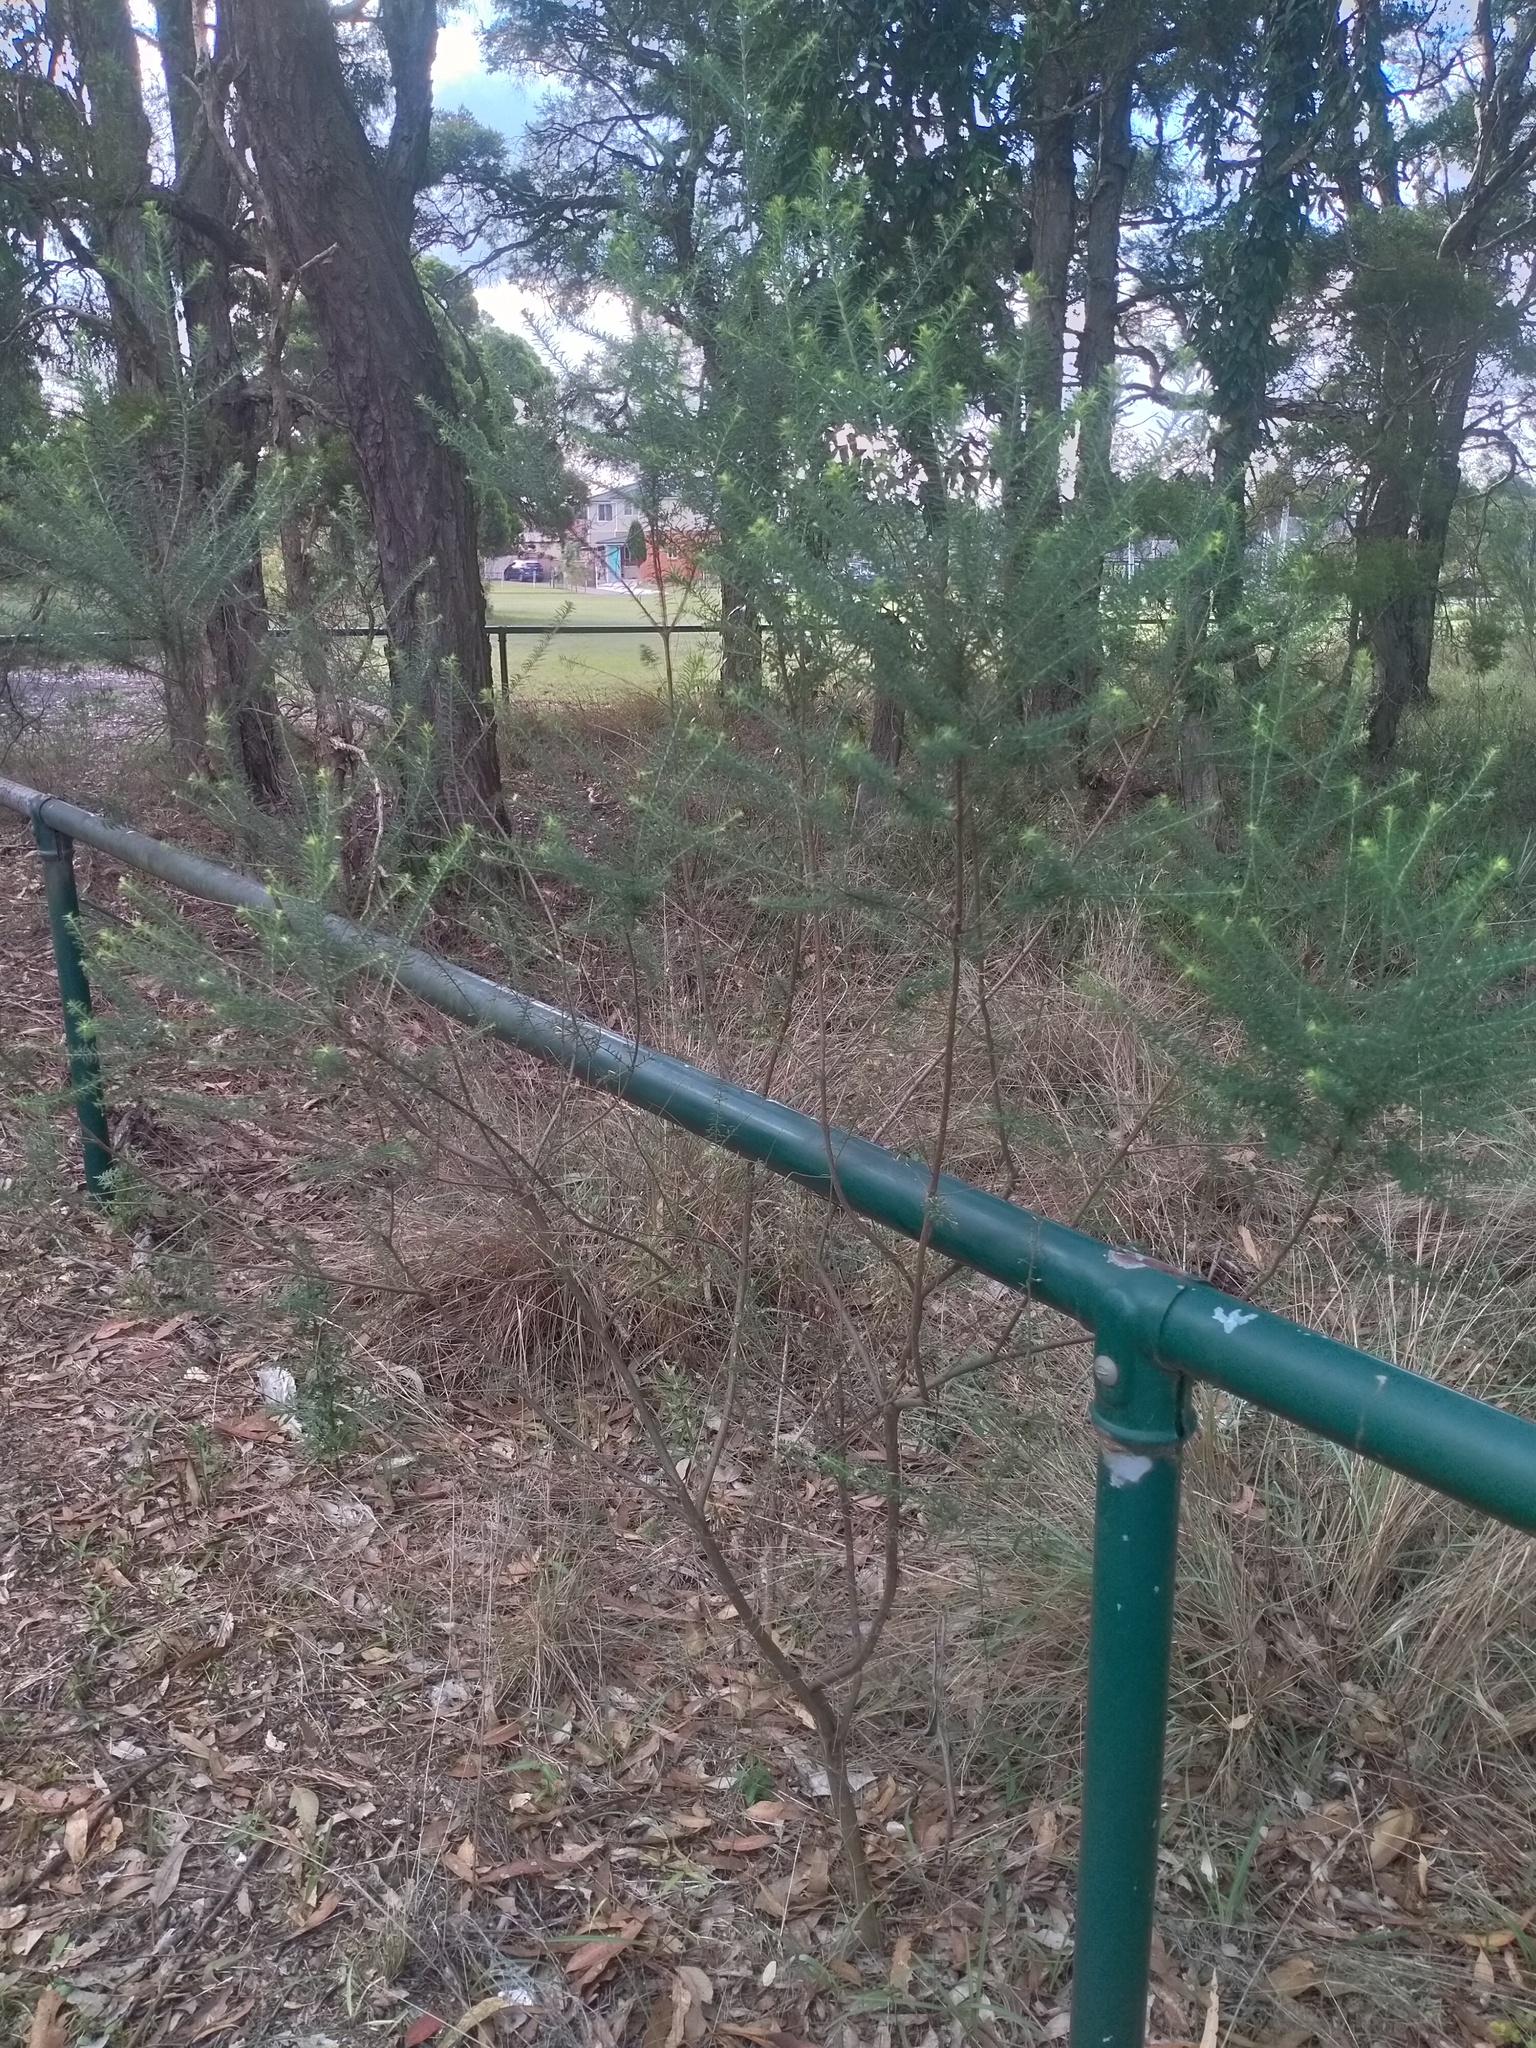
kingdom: Plantae
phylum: Tracheophyta
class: Magnoliopsida
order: Asterales
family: Asteraceae
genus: Ozothamnus
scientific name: Ozothamnus diosmifolius
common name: White-dogwood
